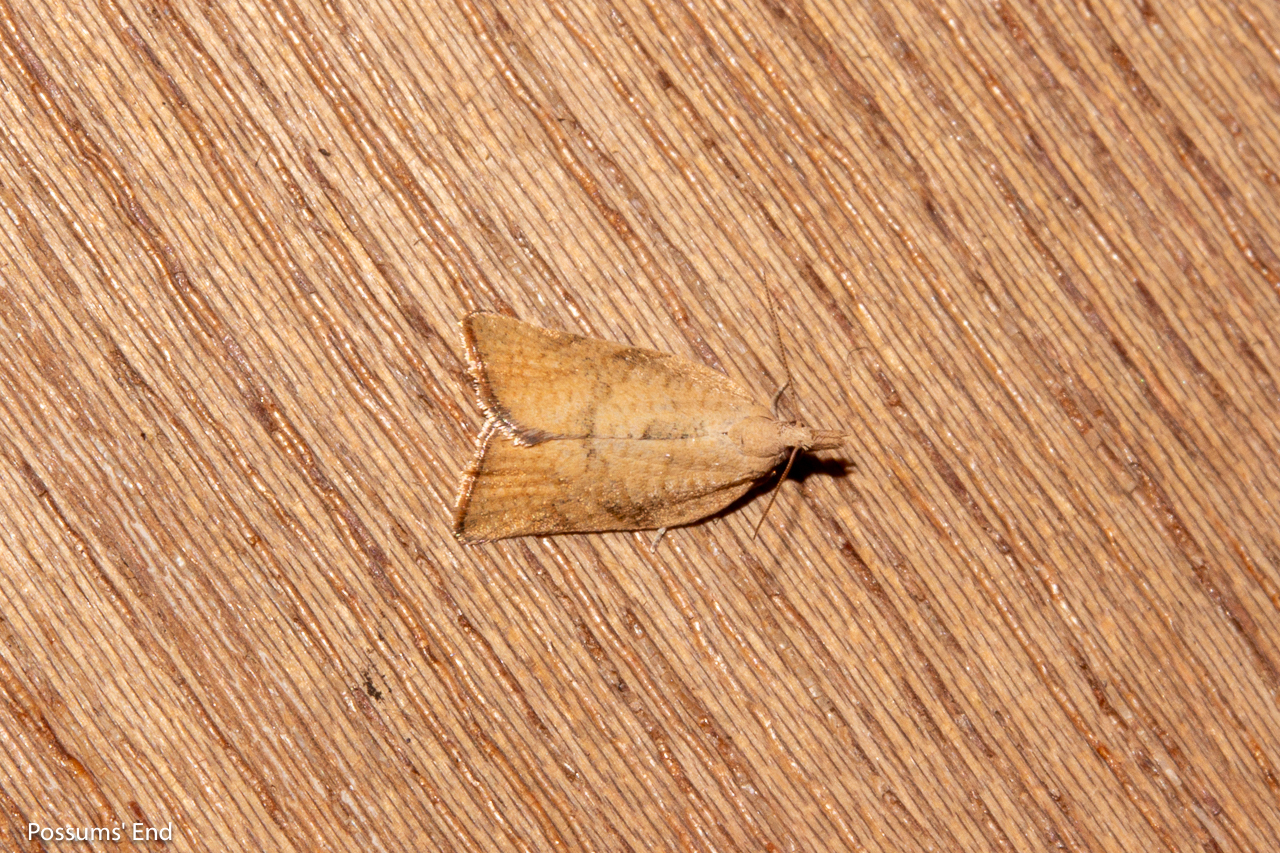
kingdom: Animalia
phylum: Arthropoda
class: Insecta
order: Lepidoptera
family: Tortricidae
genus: Catamacta
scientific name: Catamacta gavisana
